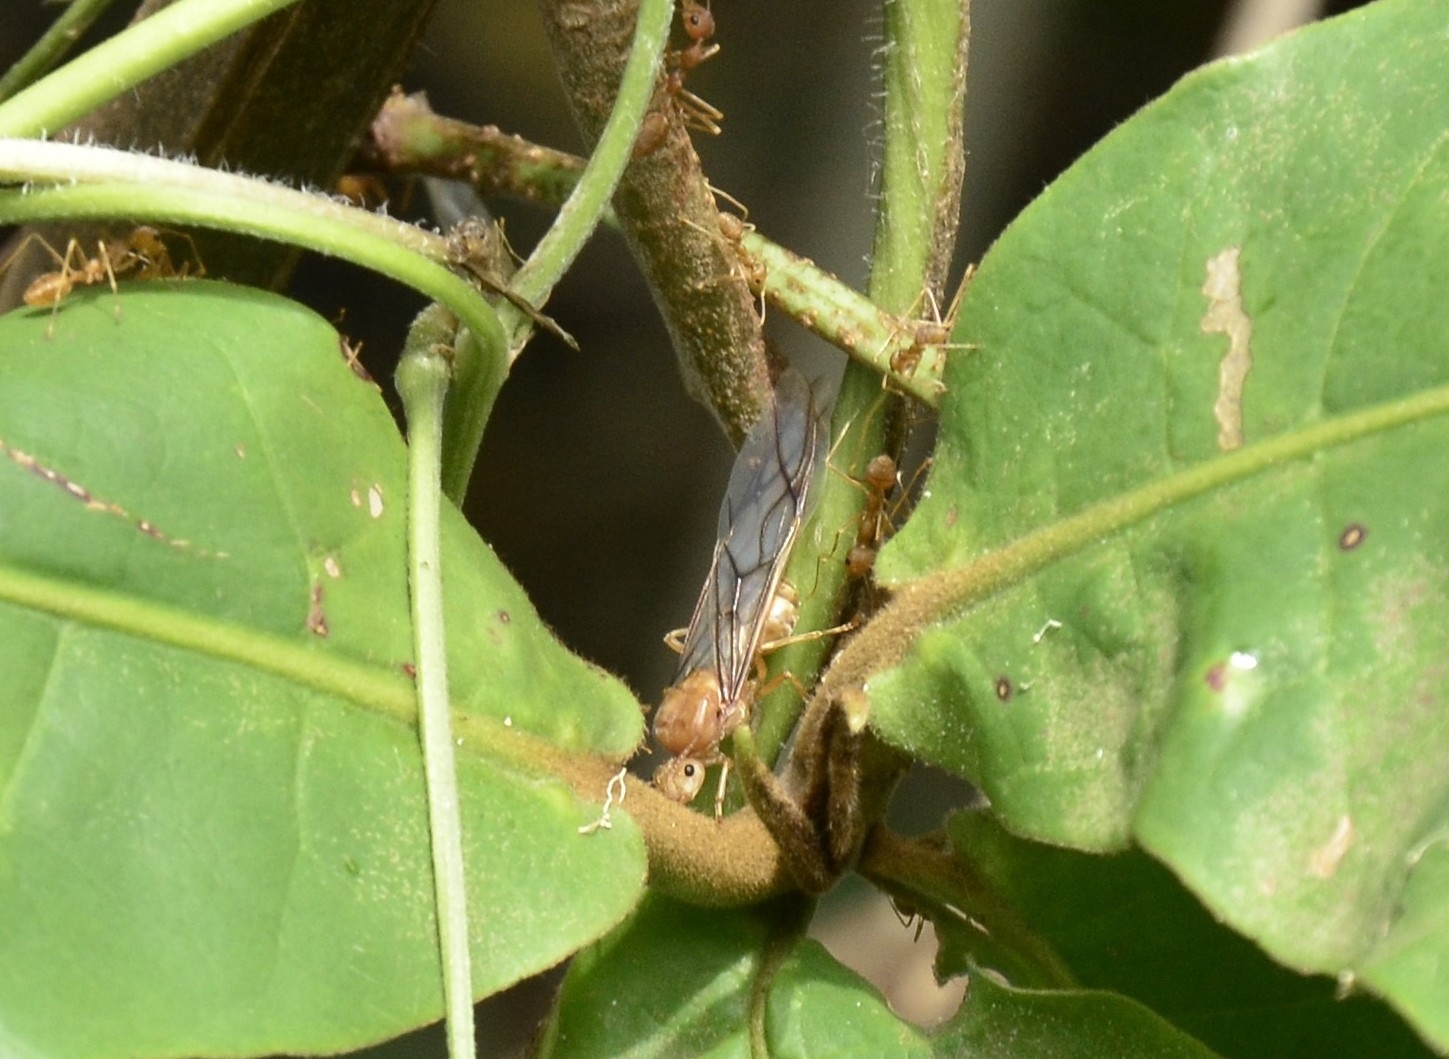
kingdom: Animalia
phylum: Arthropoda
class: Insecta
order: Hymenoptera
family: Formicidae
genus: Oecophylla
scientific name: Oecophylla smaragdina
